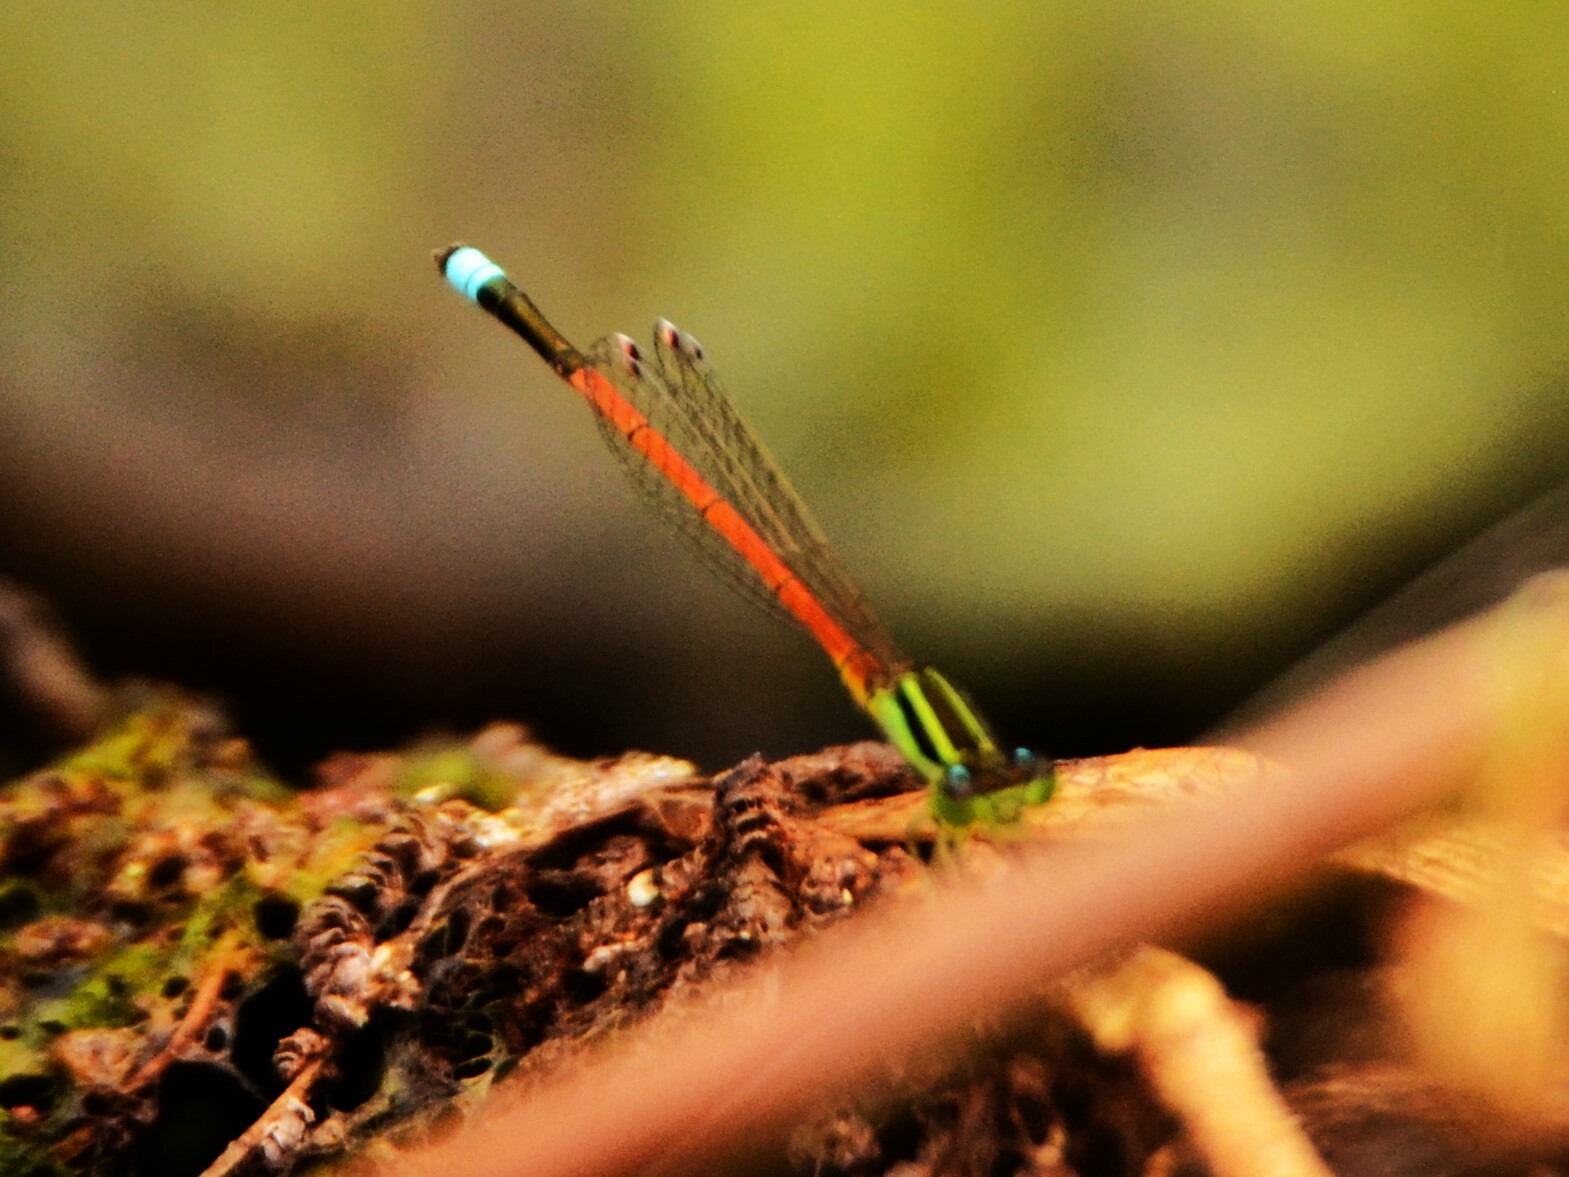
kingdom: Animalia
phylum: Arthropoda
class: Insecta
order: Odonata
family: Coenagrionidae
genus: Ischnura
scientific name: Ischnura aurora
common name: Gossamer damselfly
